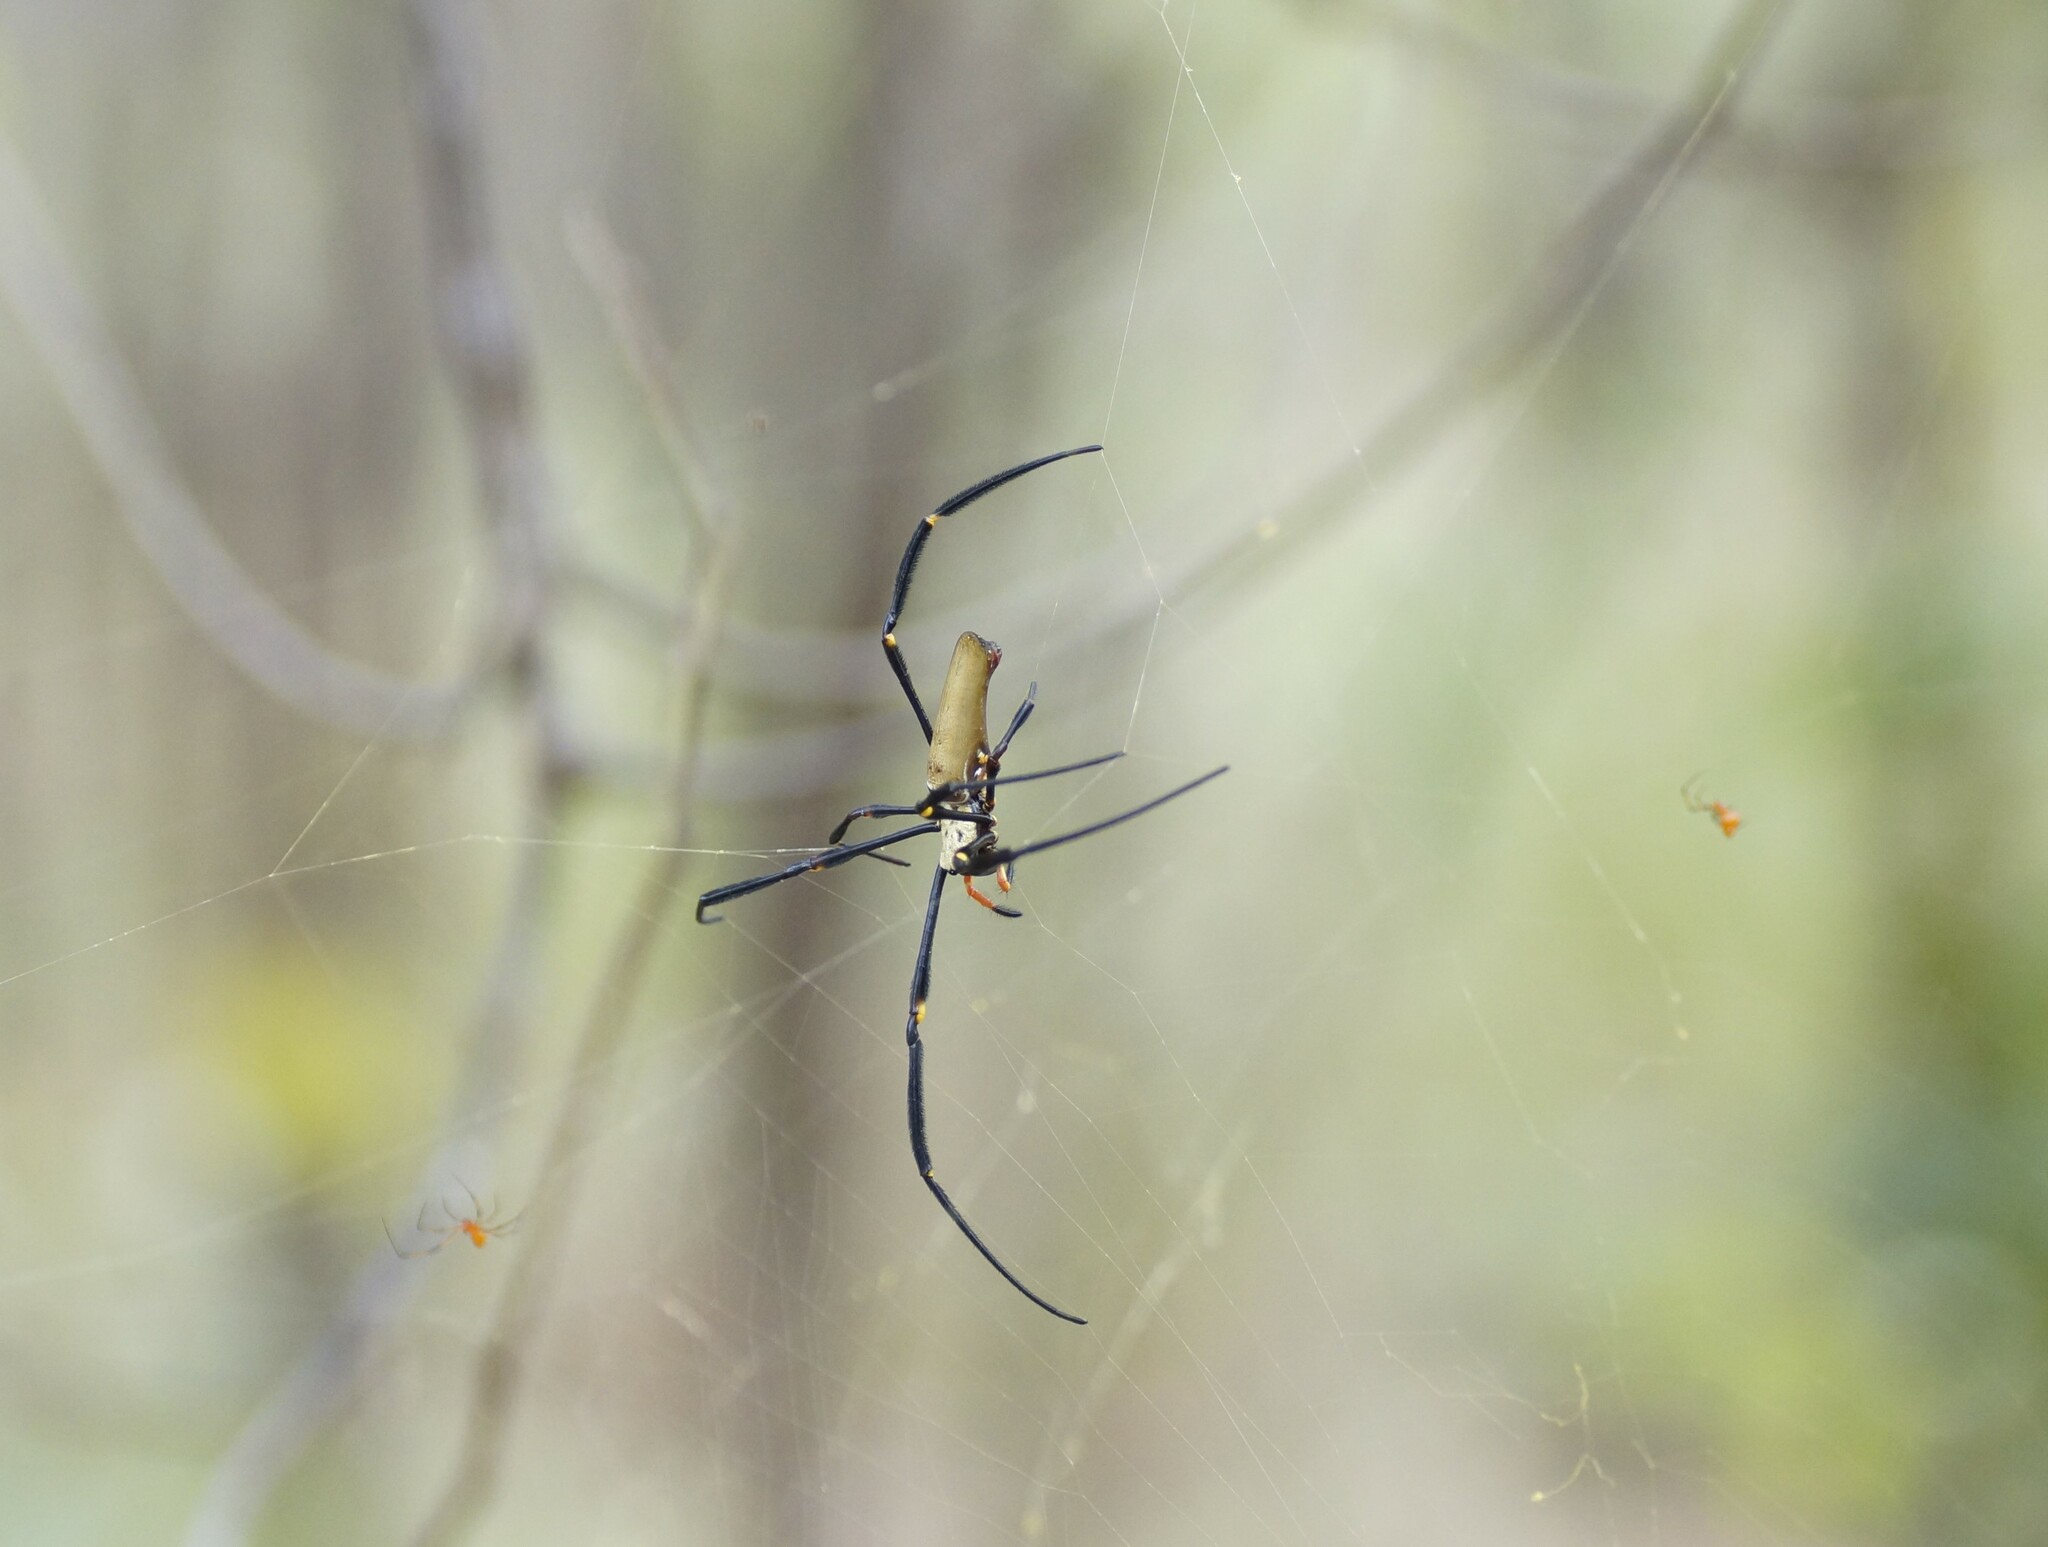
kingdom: Animalia
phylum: Arthropoda
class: Arachnida
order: Araneae
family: Araneidae
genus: Nephila
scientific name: Nephila pilipes
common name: Giant golden orb weaver
